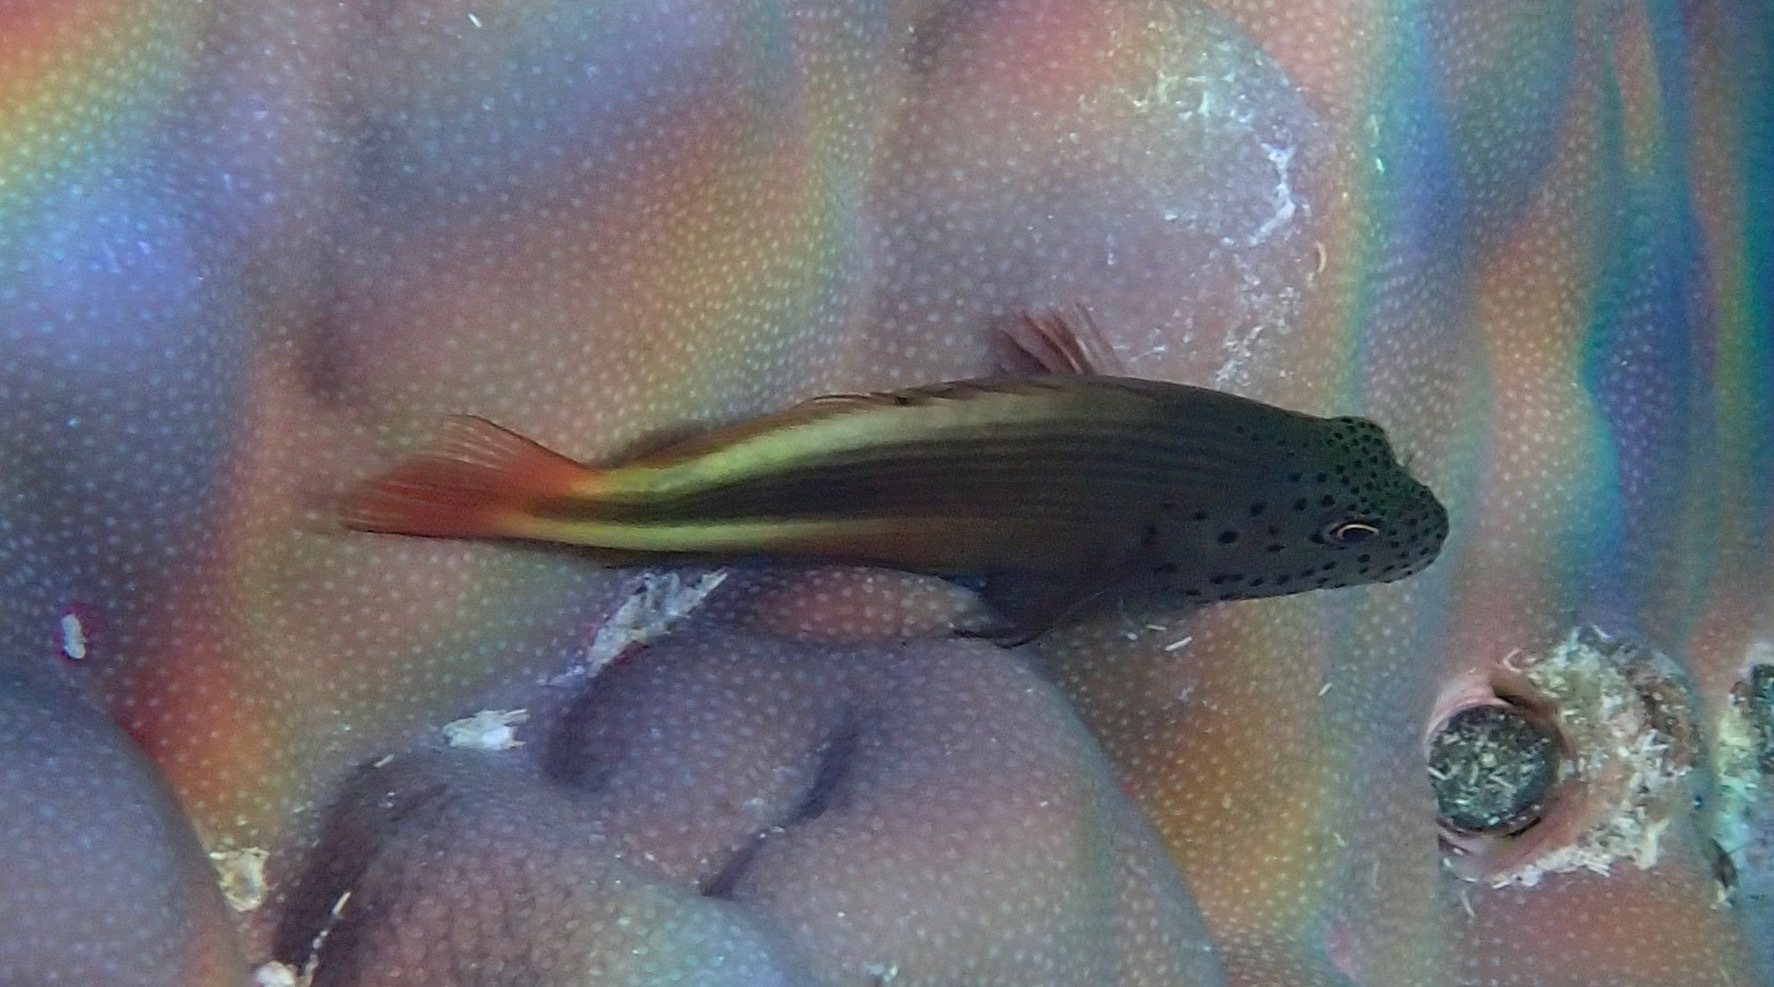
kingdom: Animalia
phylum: Chordata
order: Perciformes
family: Cirrhitidae
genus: Paracirrhites
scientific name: Paracirrhites forsteri
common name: Freckled hawkfish
